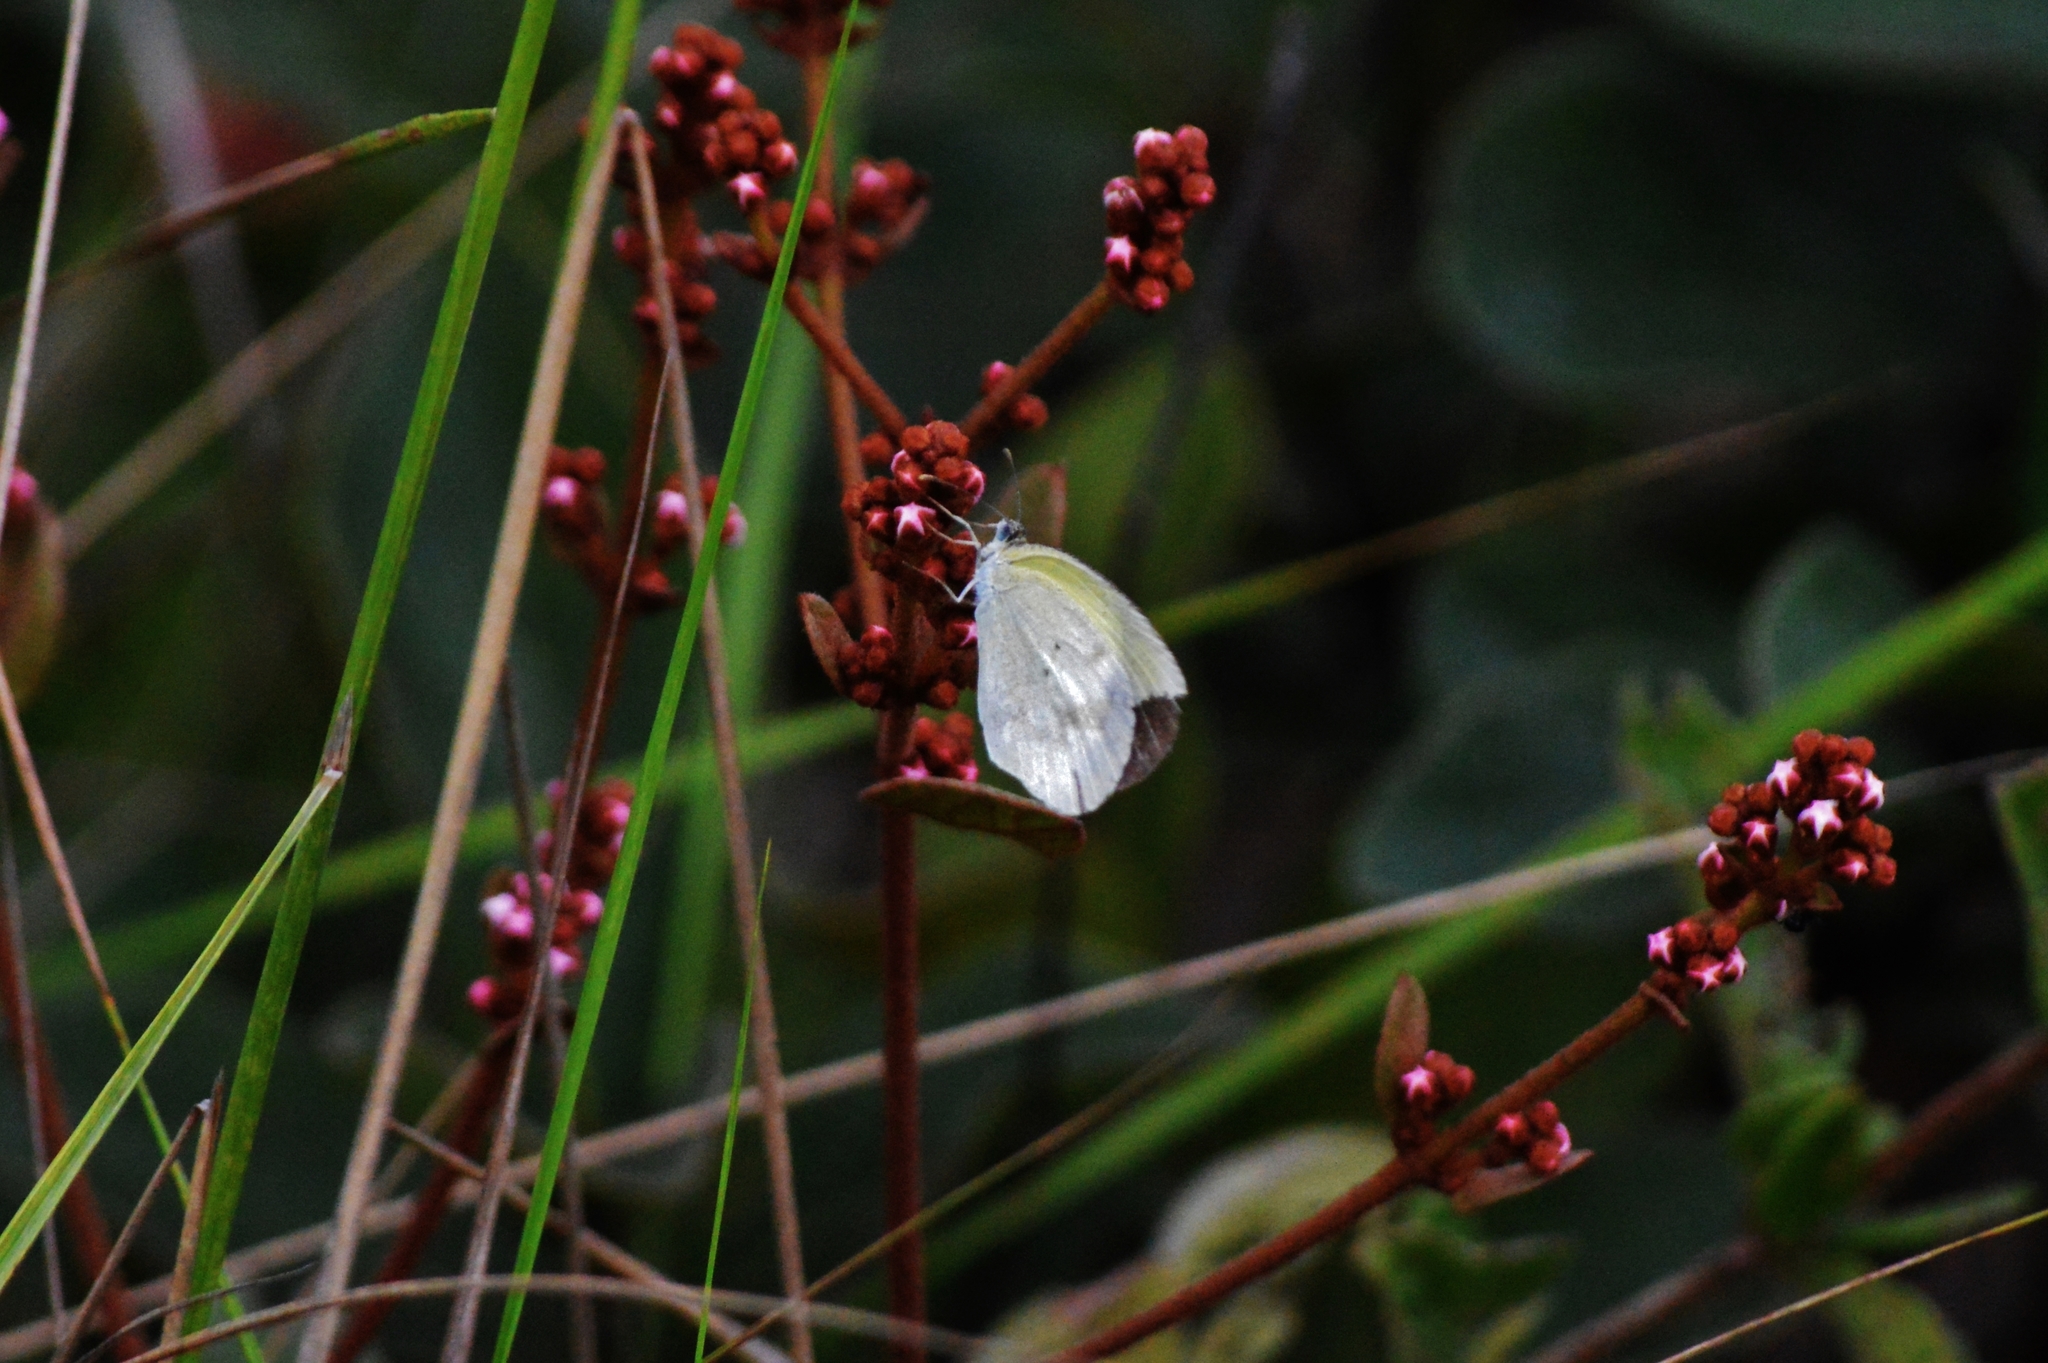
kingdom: Animalia
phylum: Arthropoda
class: Insecta
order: Lepidoptera
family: Pieridae
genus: Eurema
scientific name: Eurema elathea
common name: Banded yellow
